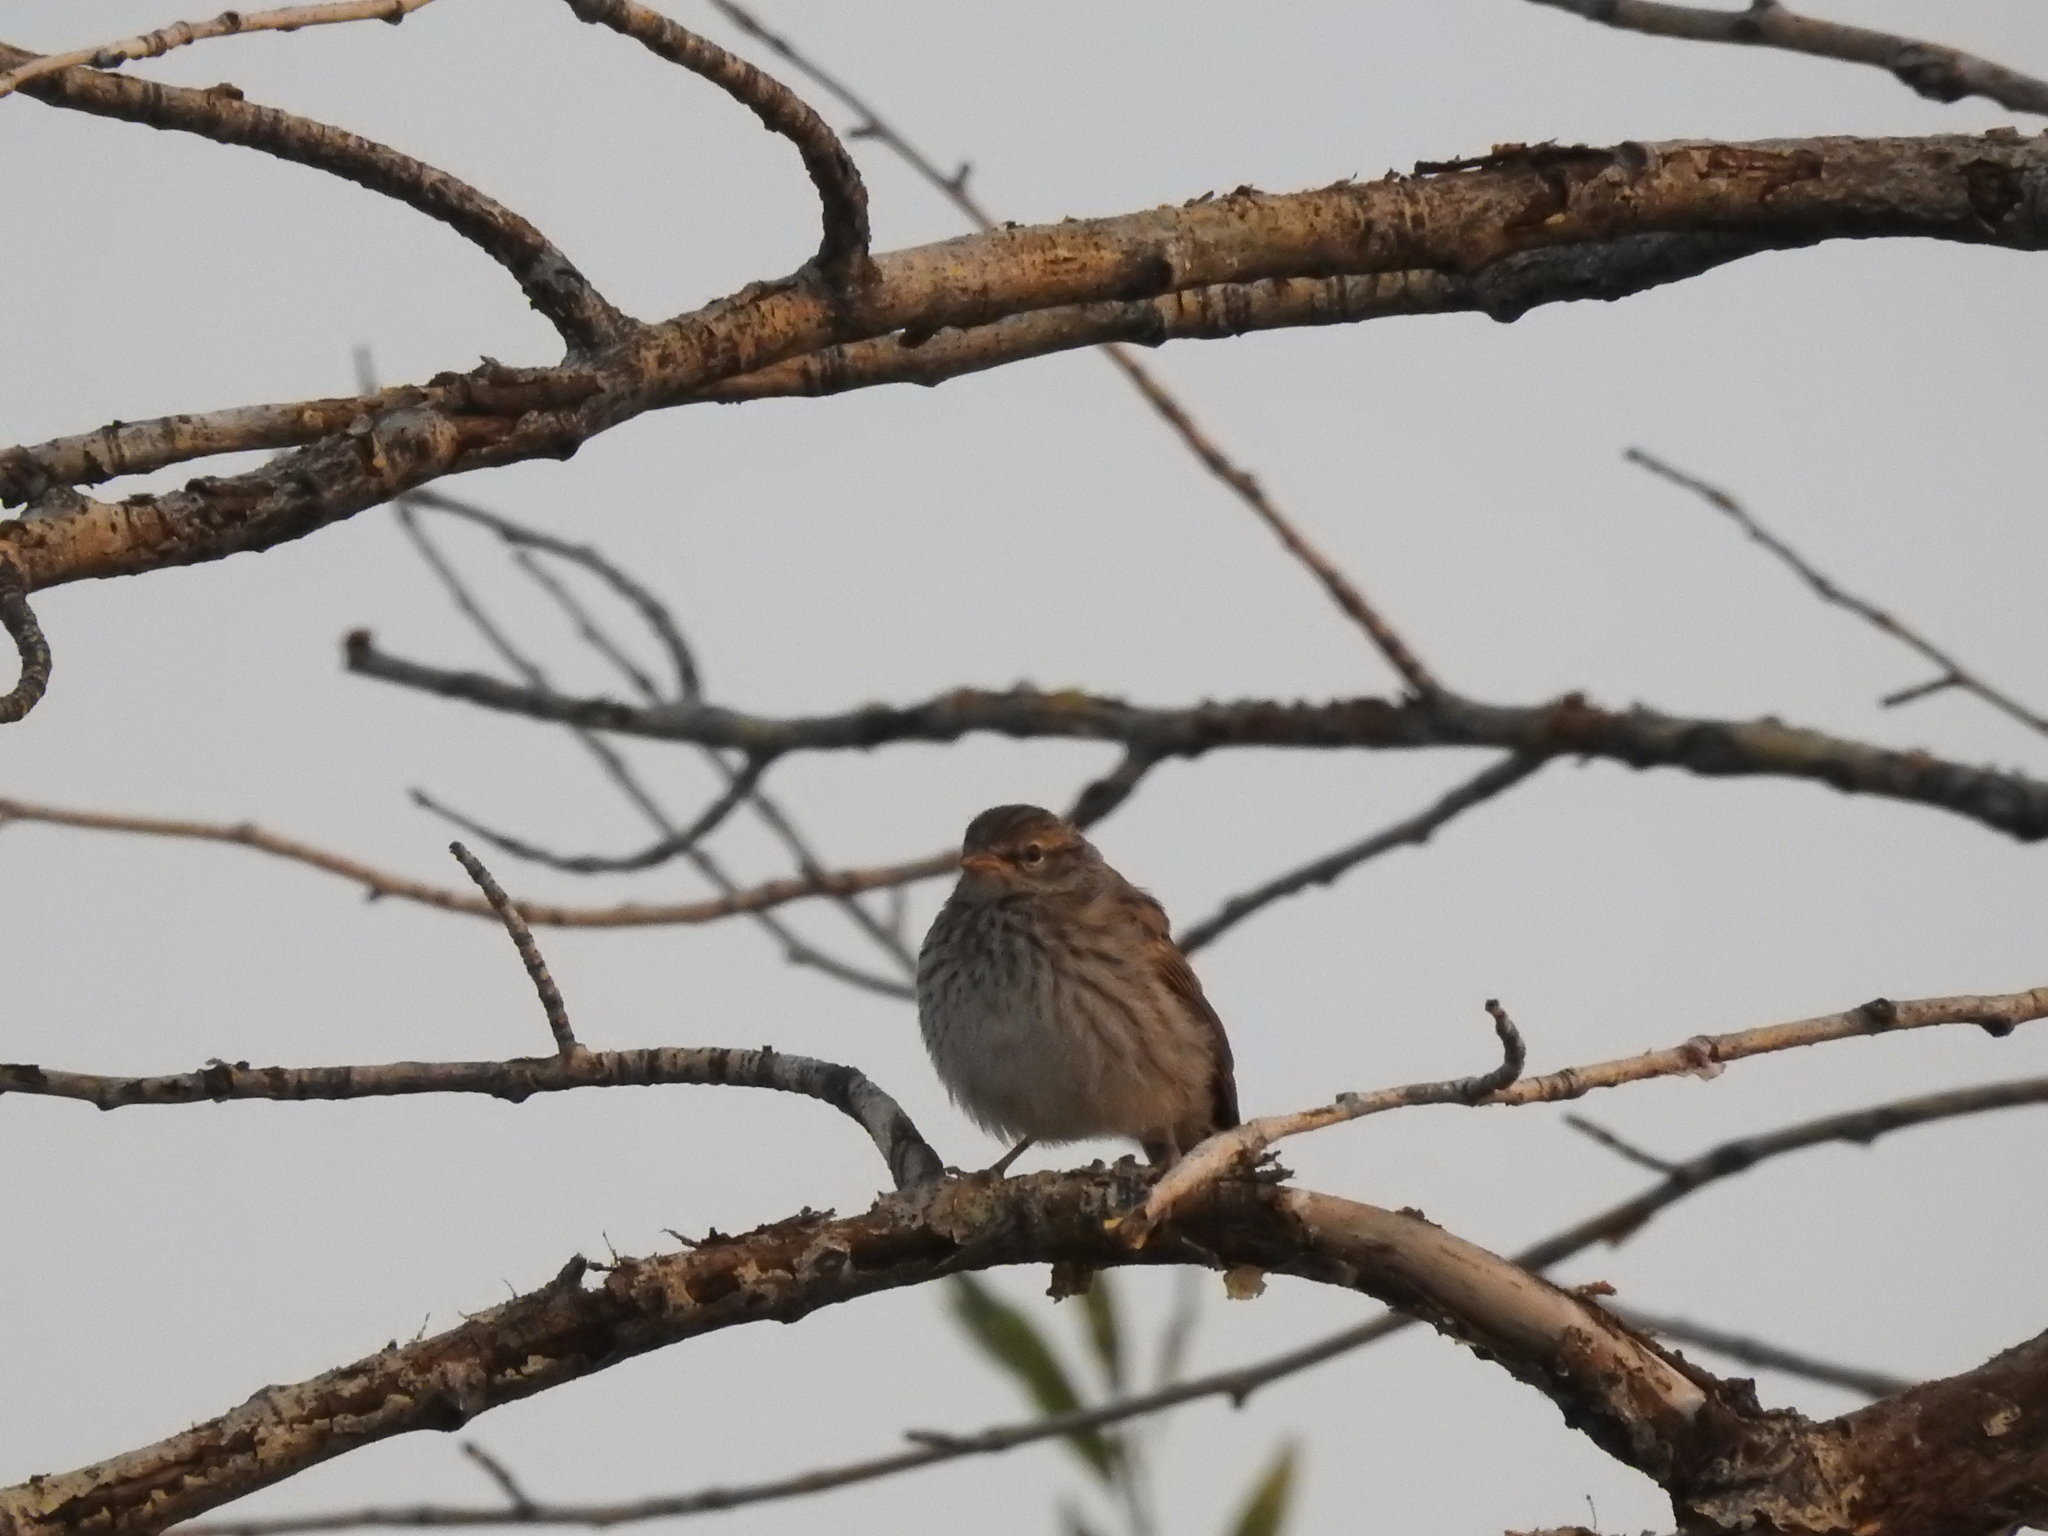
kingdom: Animalia
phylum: Chordata
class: Aves
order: Passeriformes
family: Passerellidae
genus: Spizella
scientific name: Spizella passerina
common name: Chipping sparrow
